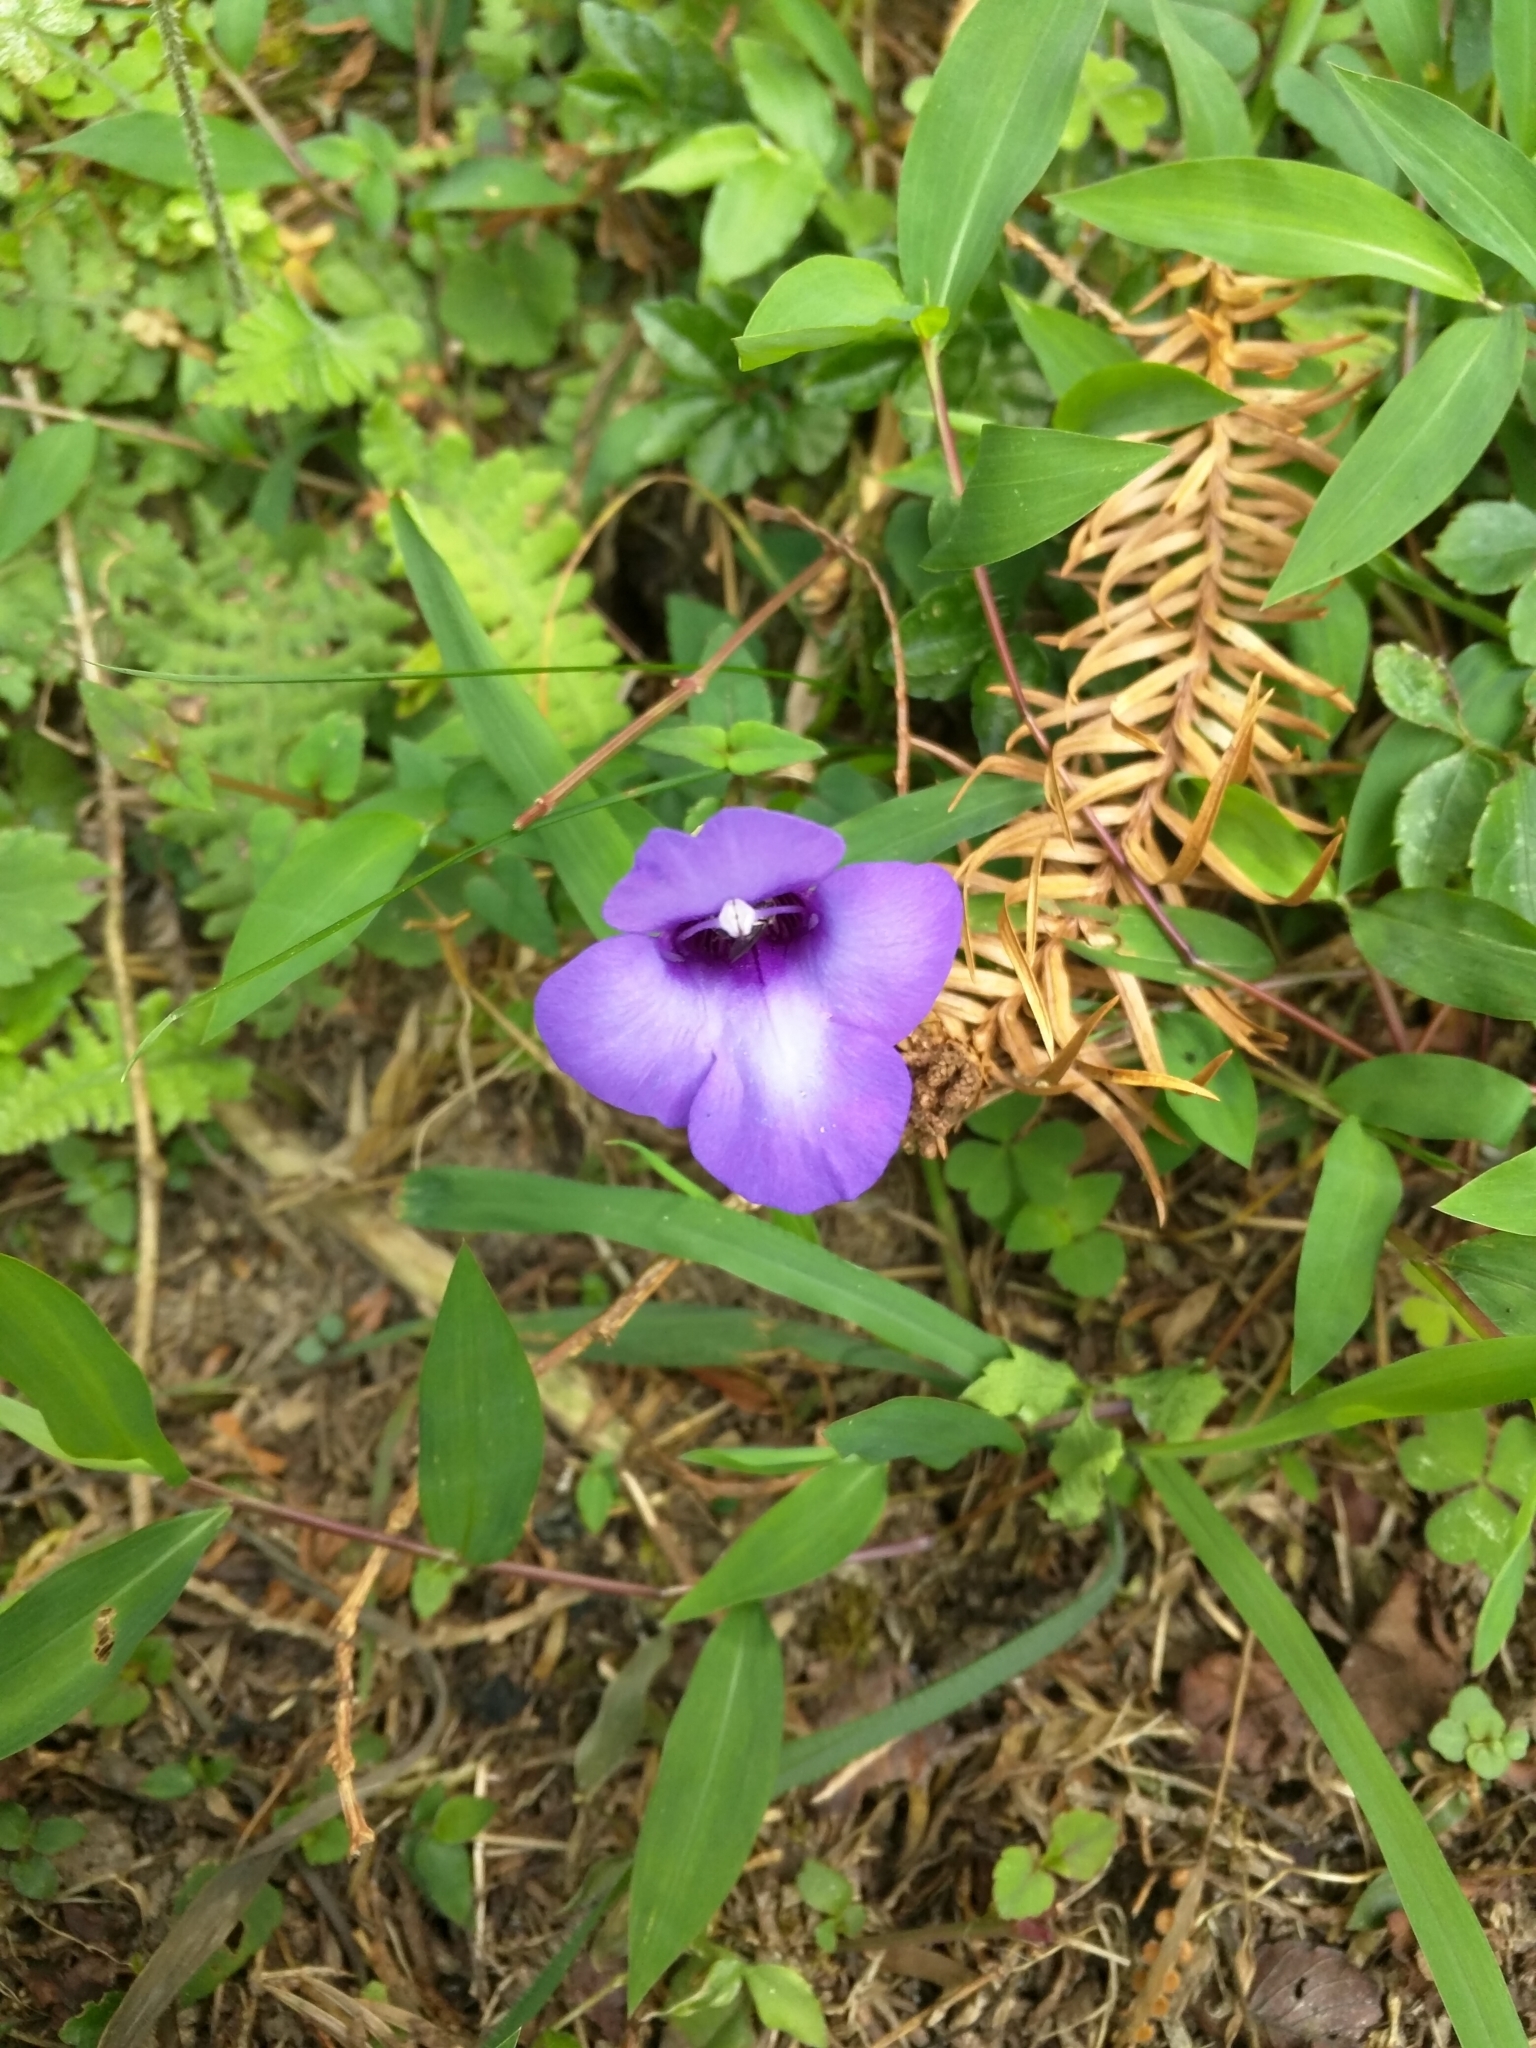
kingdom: Plantae
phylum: Tracheophyta
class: Magnoliopsida
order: Lamiales
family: Linderniaceae
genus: Torenia
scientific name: Torenia concolor
